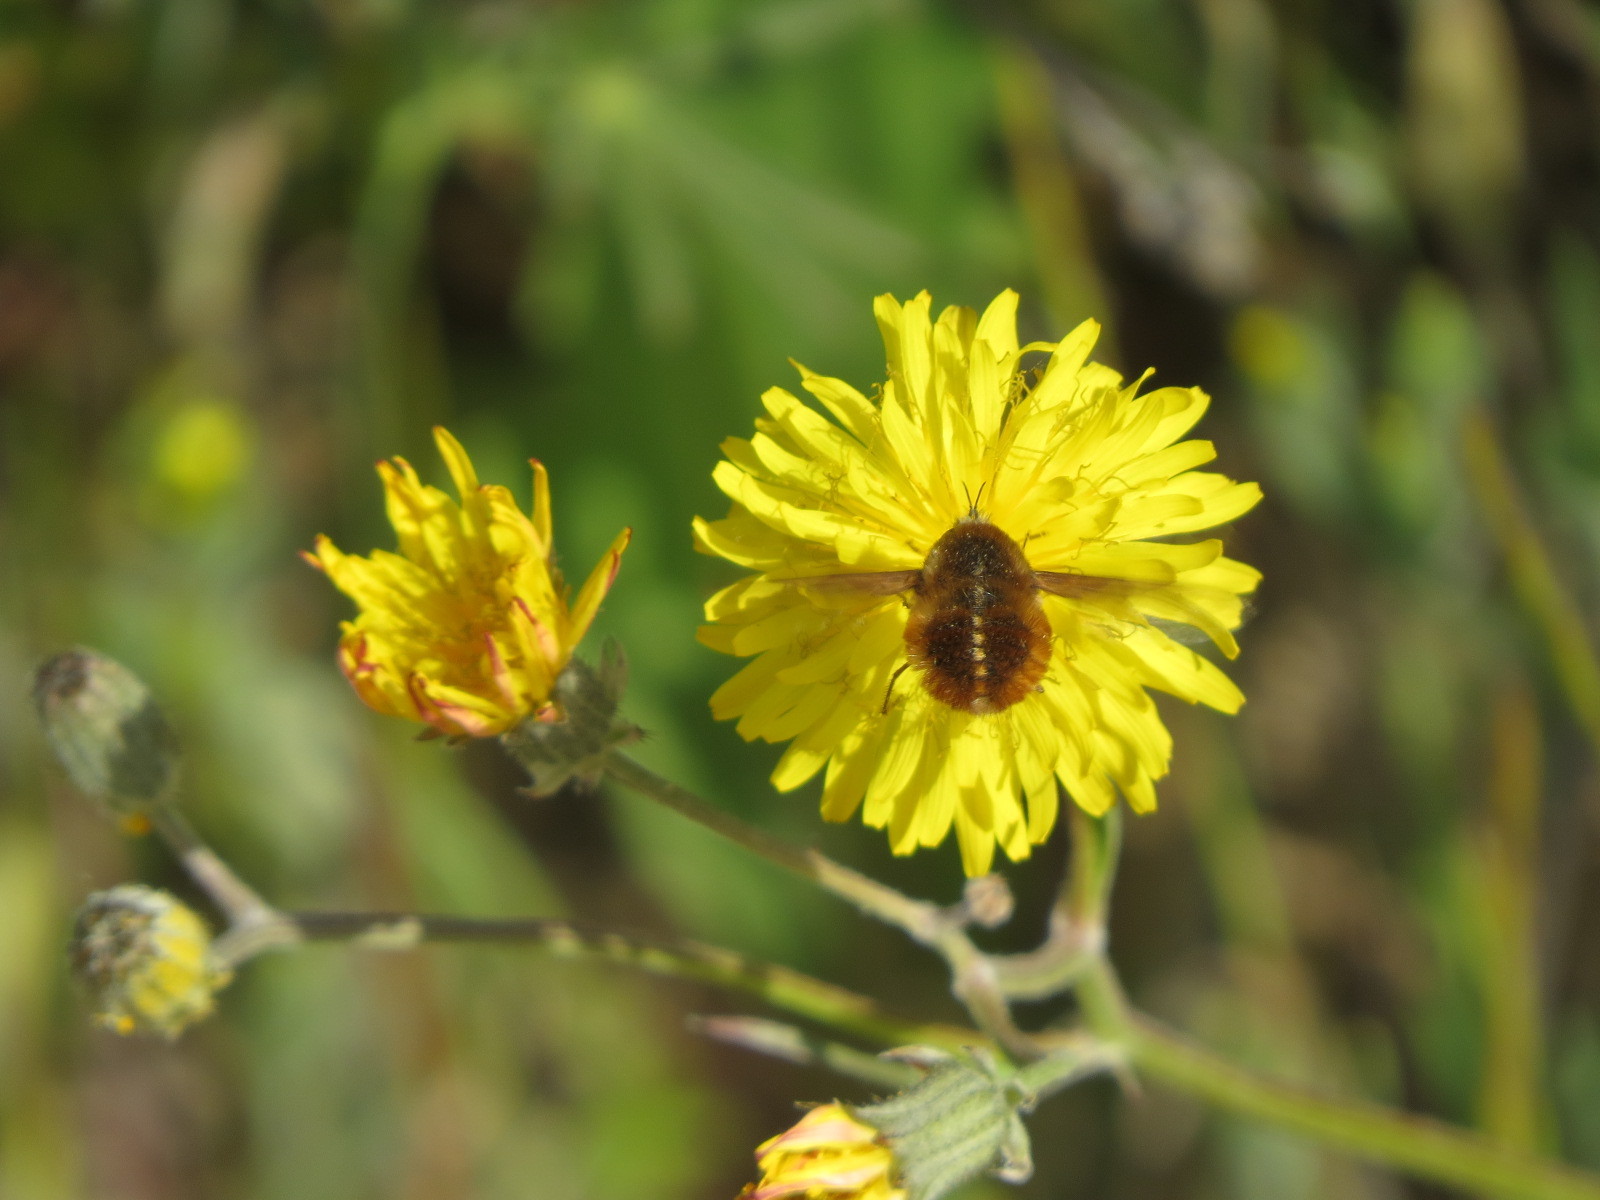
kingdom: Animalia
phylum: Arthropoda
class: Insecta
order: Diptera
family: Bombyliidae
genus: Bombylius
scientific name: Bombylius major
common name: Bee fly
